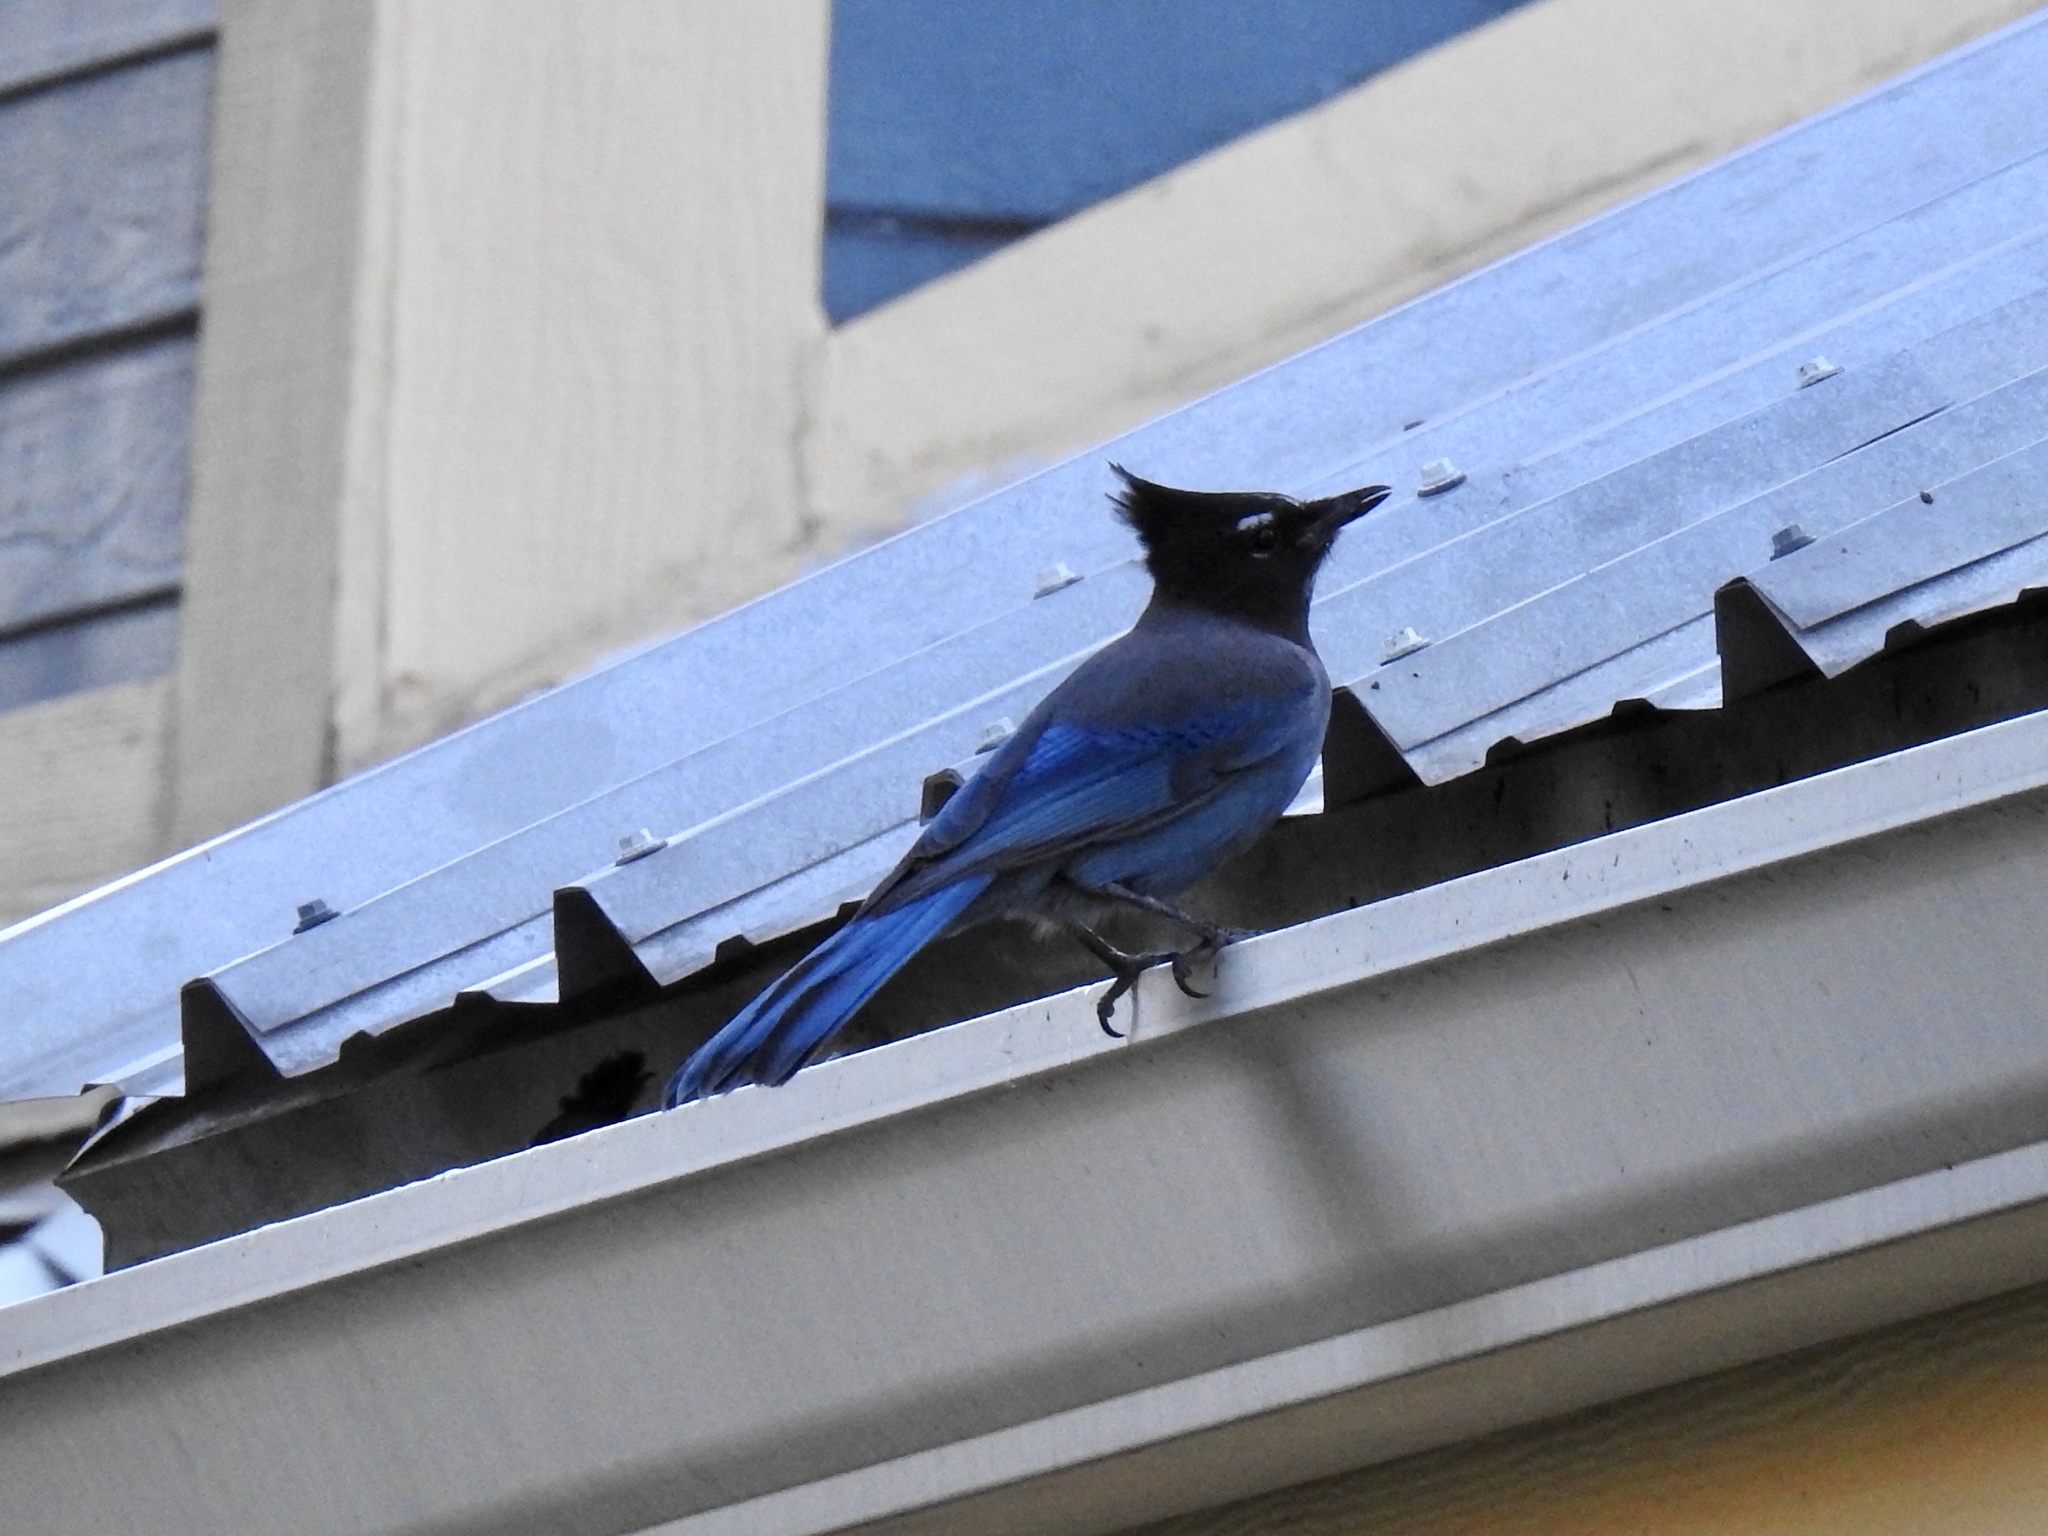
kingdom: Animalia
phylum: Chordata
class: Aves
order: Passeriformes
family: Corvidae
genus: Cyanocitta
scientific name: Cyanocitta stelleri
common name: Steller's jay
